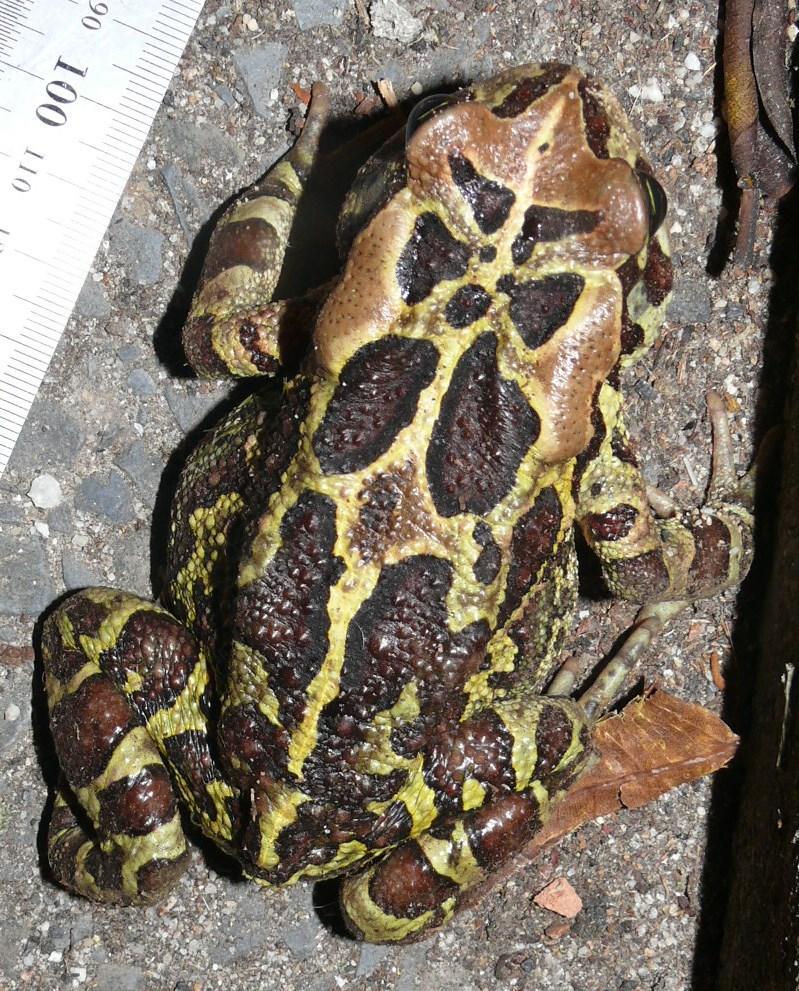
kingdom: Animalia
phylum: Chordata
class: Amphibia
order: Anura
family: Bufonidae
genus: Sclerophrys
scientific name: Sclerophrys pantherina
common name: Panther toad
